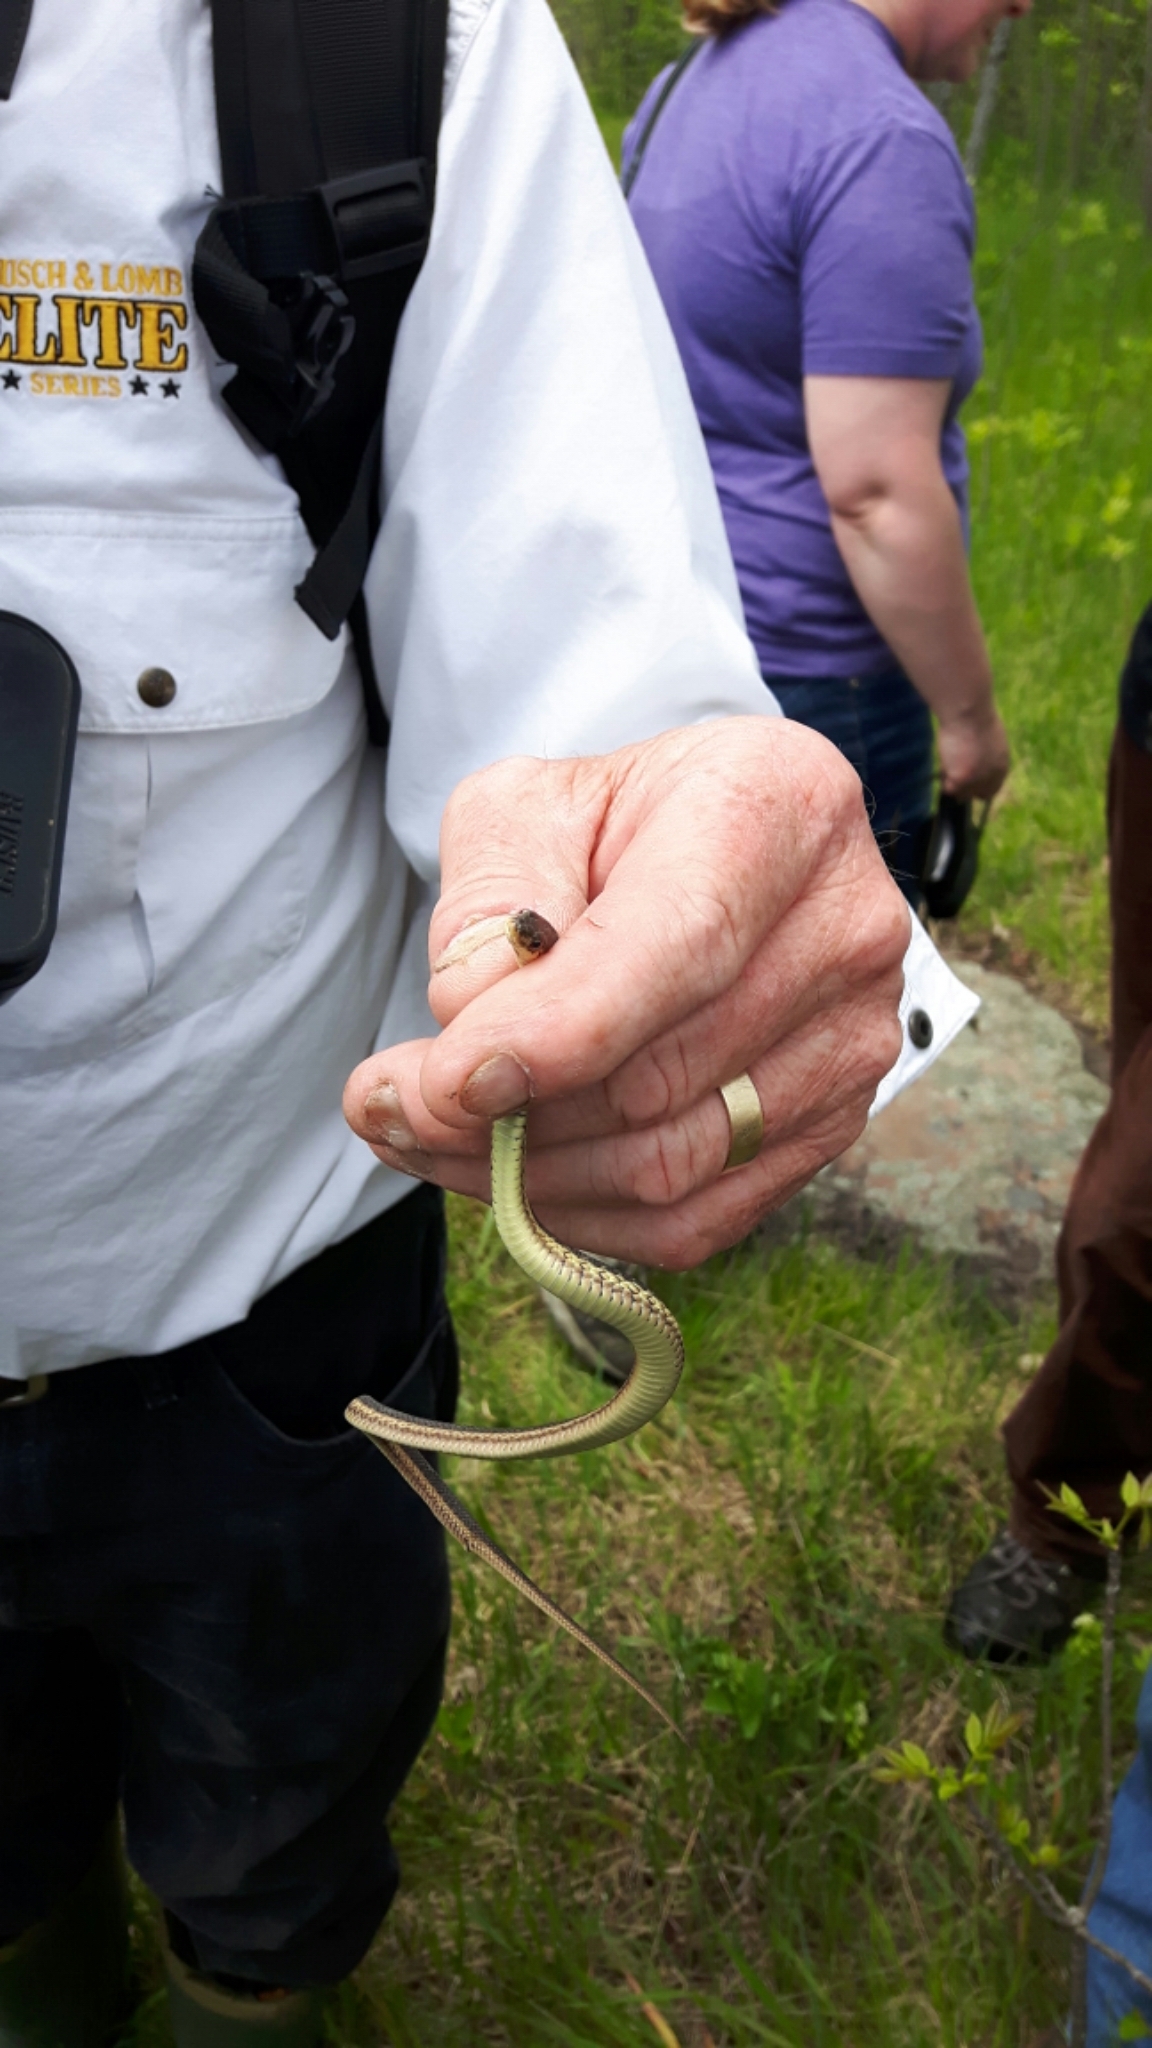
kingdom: Animalia
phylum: Chordata
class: Squamata
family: Colubridae
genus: Thamnophis
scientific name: Thamnophis sirtalis
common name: Common garter snake
